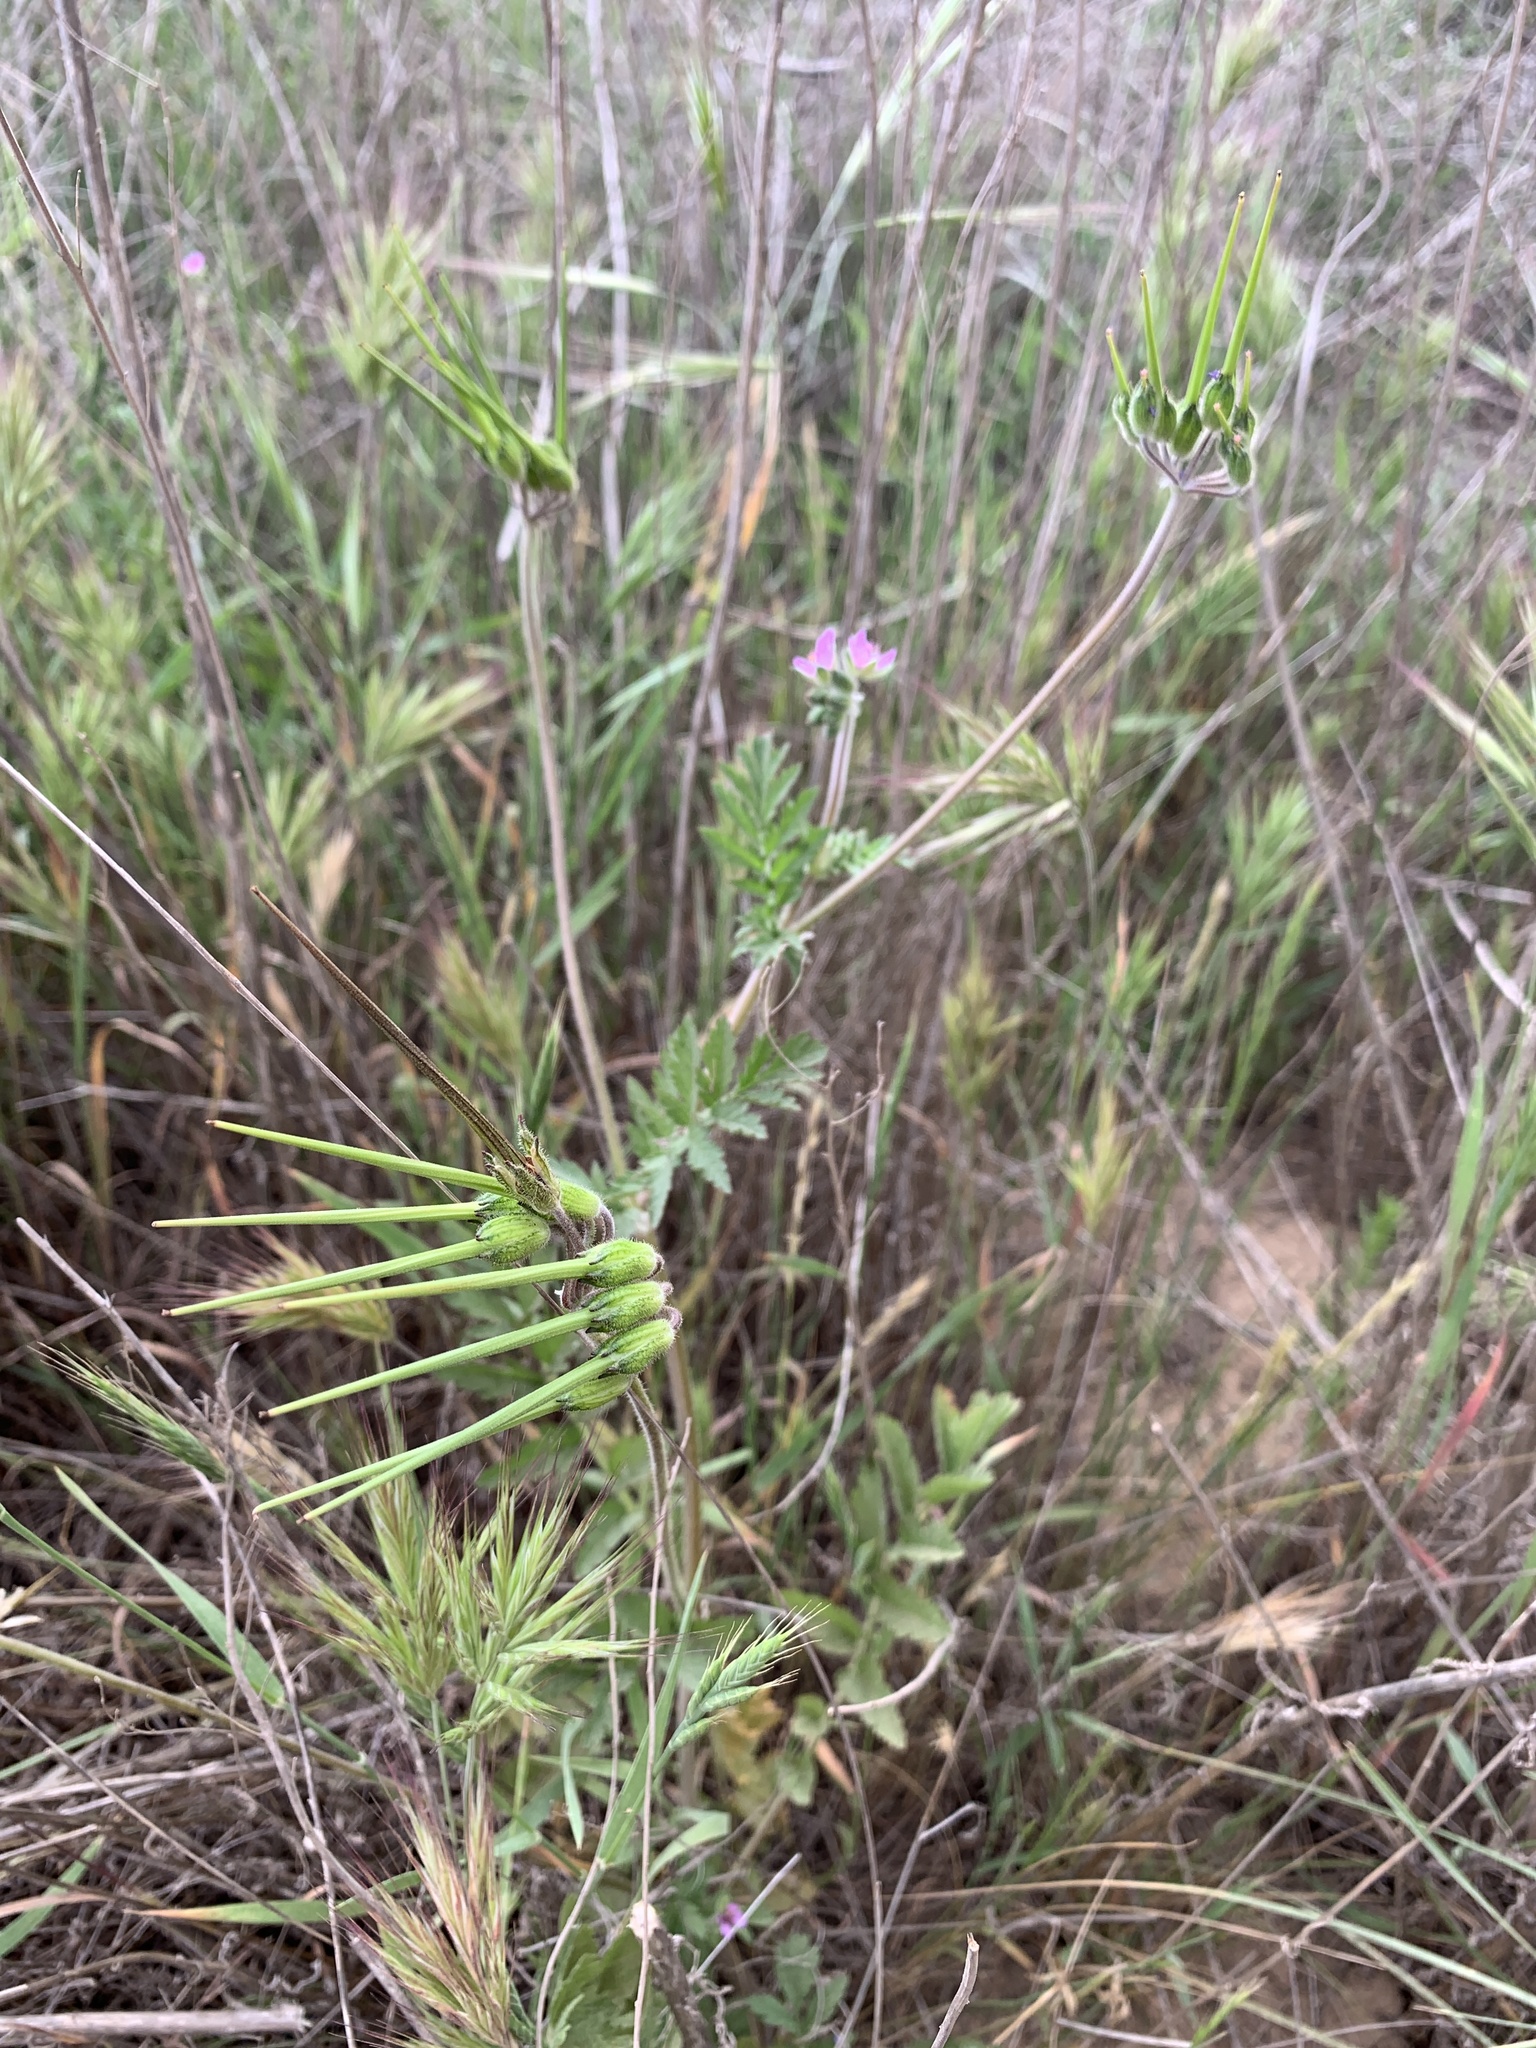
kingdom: Plantae
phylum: Tracheophyta
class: Magnoliopsida
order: Geraniales
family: Geraniaceae
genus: Erodium
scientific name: Erodium moschatum
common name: Musk stork's-bill
